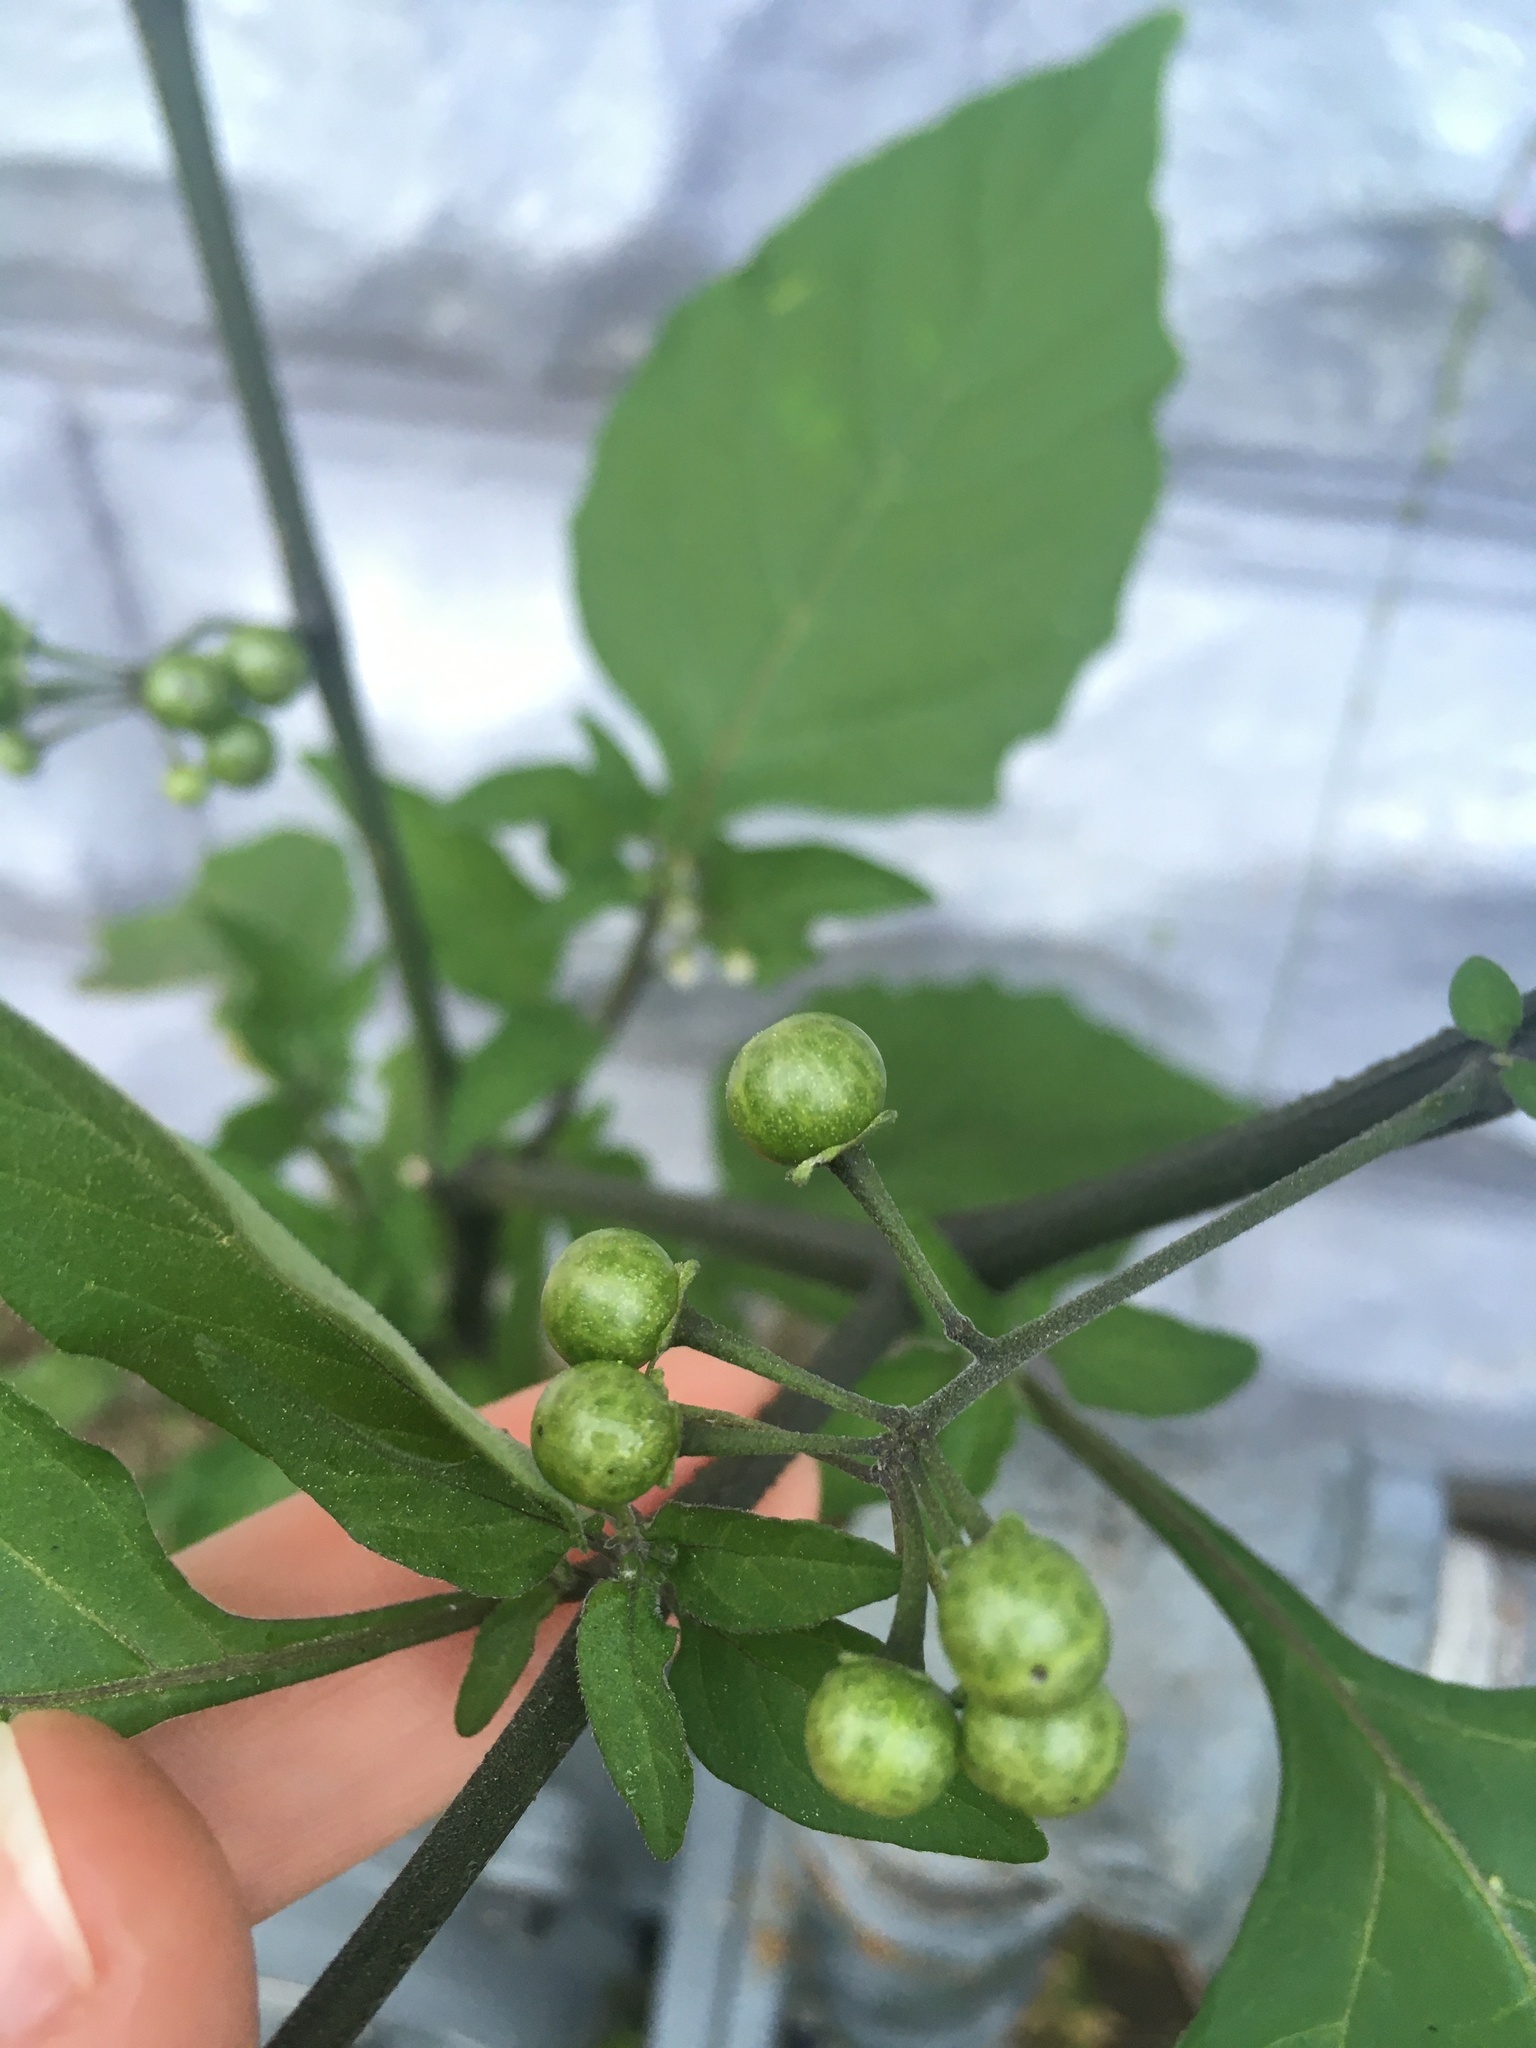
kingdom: Plantae
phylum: Tracheophyta
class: Magnoliopsida
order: Solanales
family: Solanaceae
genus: Solanum
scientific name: Solanum americanum
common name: American black nightshade
